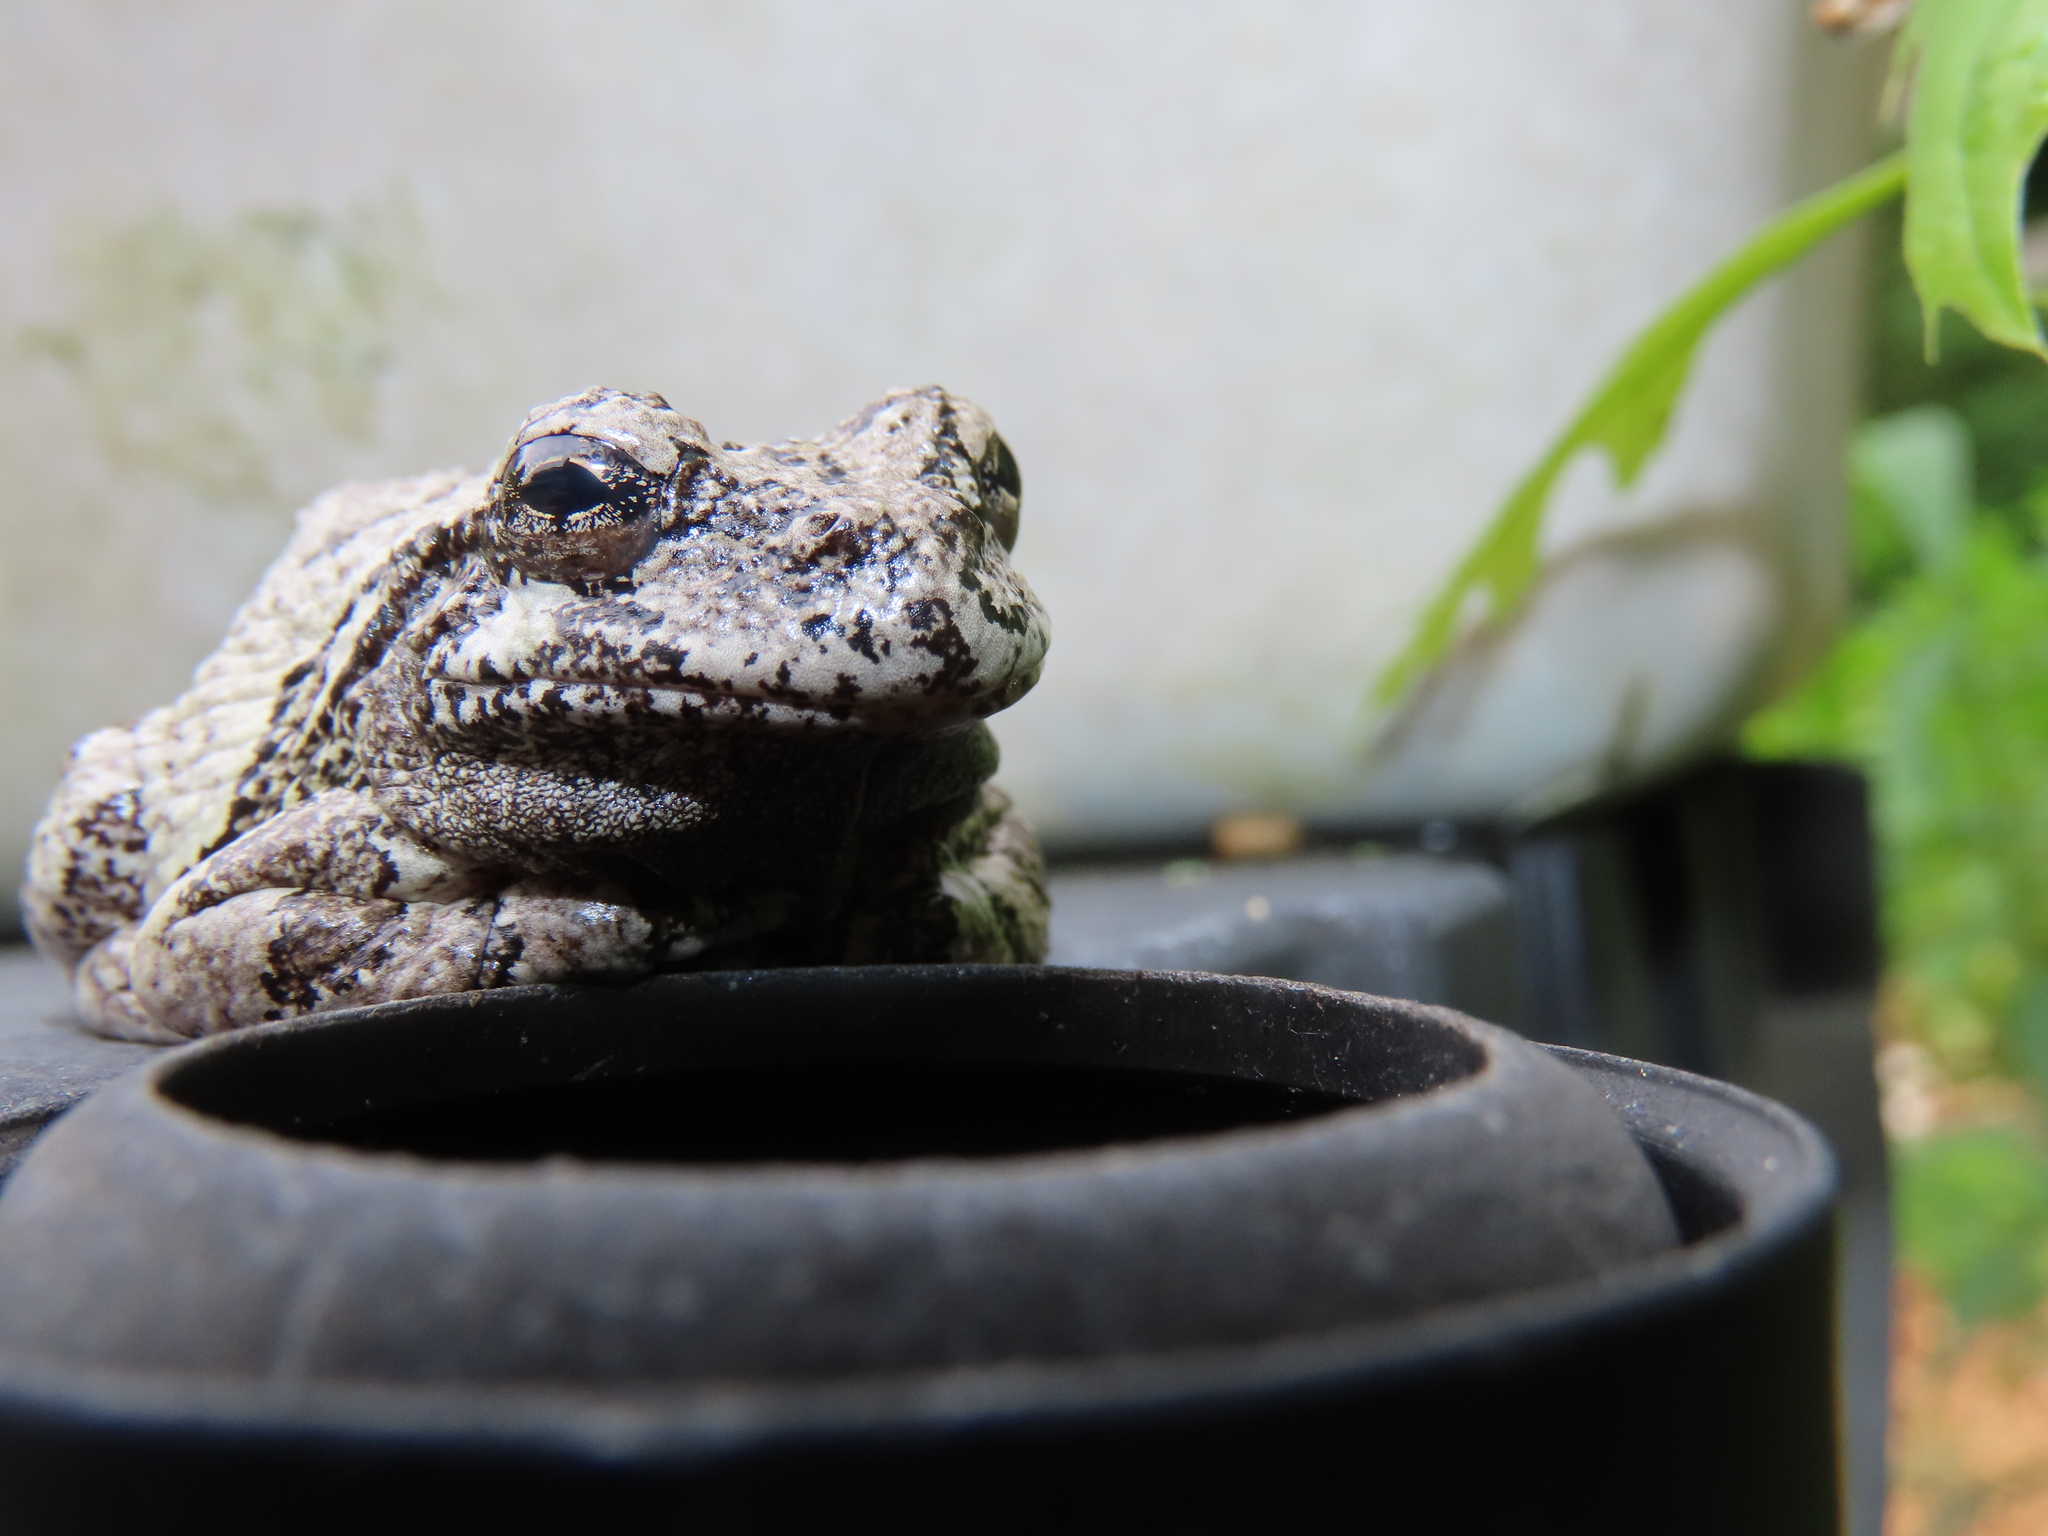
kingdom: Animalia
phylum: Chordata
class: Amphibia
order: Anura
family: Hylidae
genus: Dryophytes
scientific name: Dryophytes versicolor
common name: Gray treefrog
